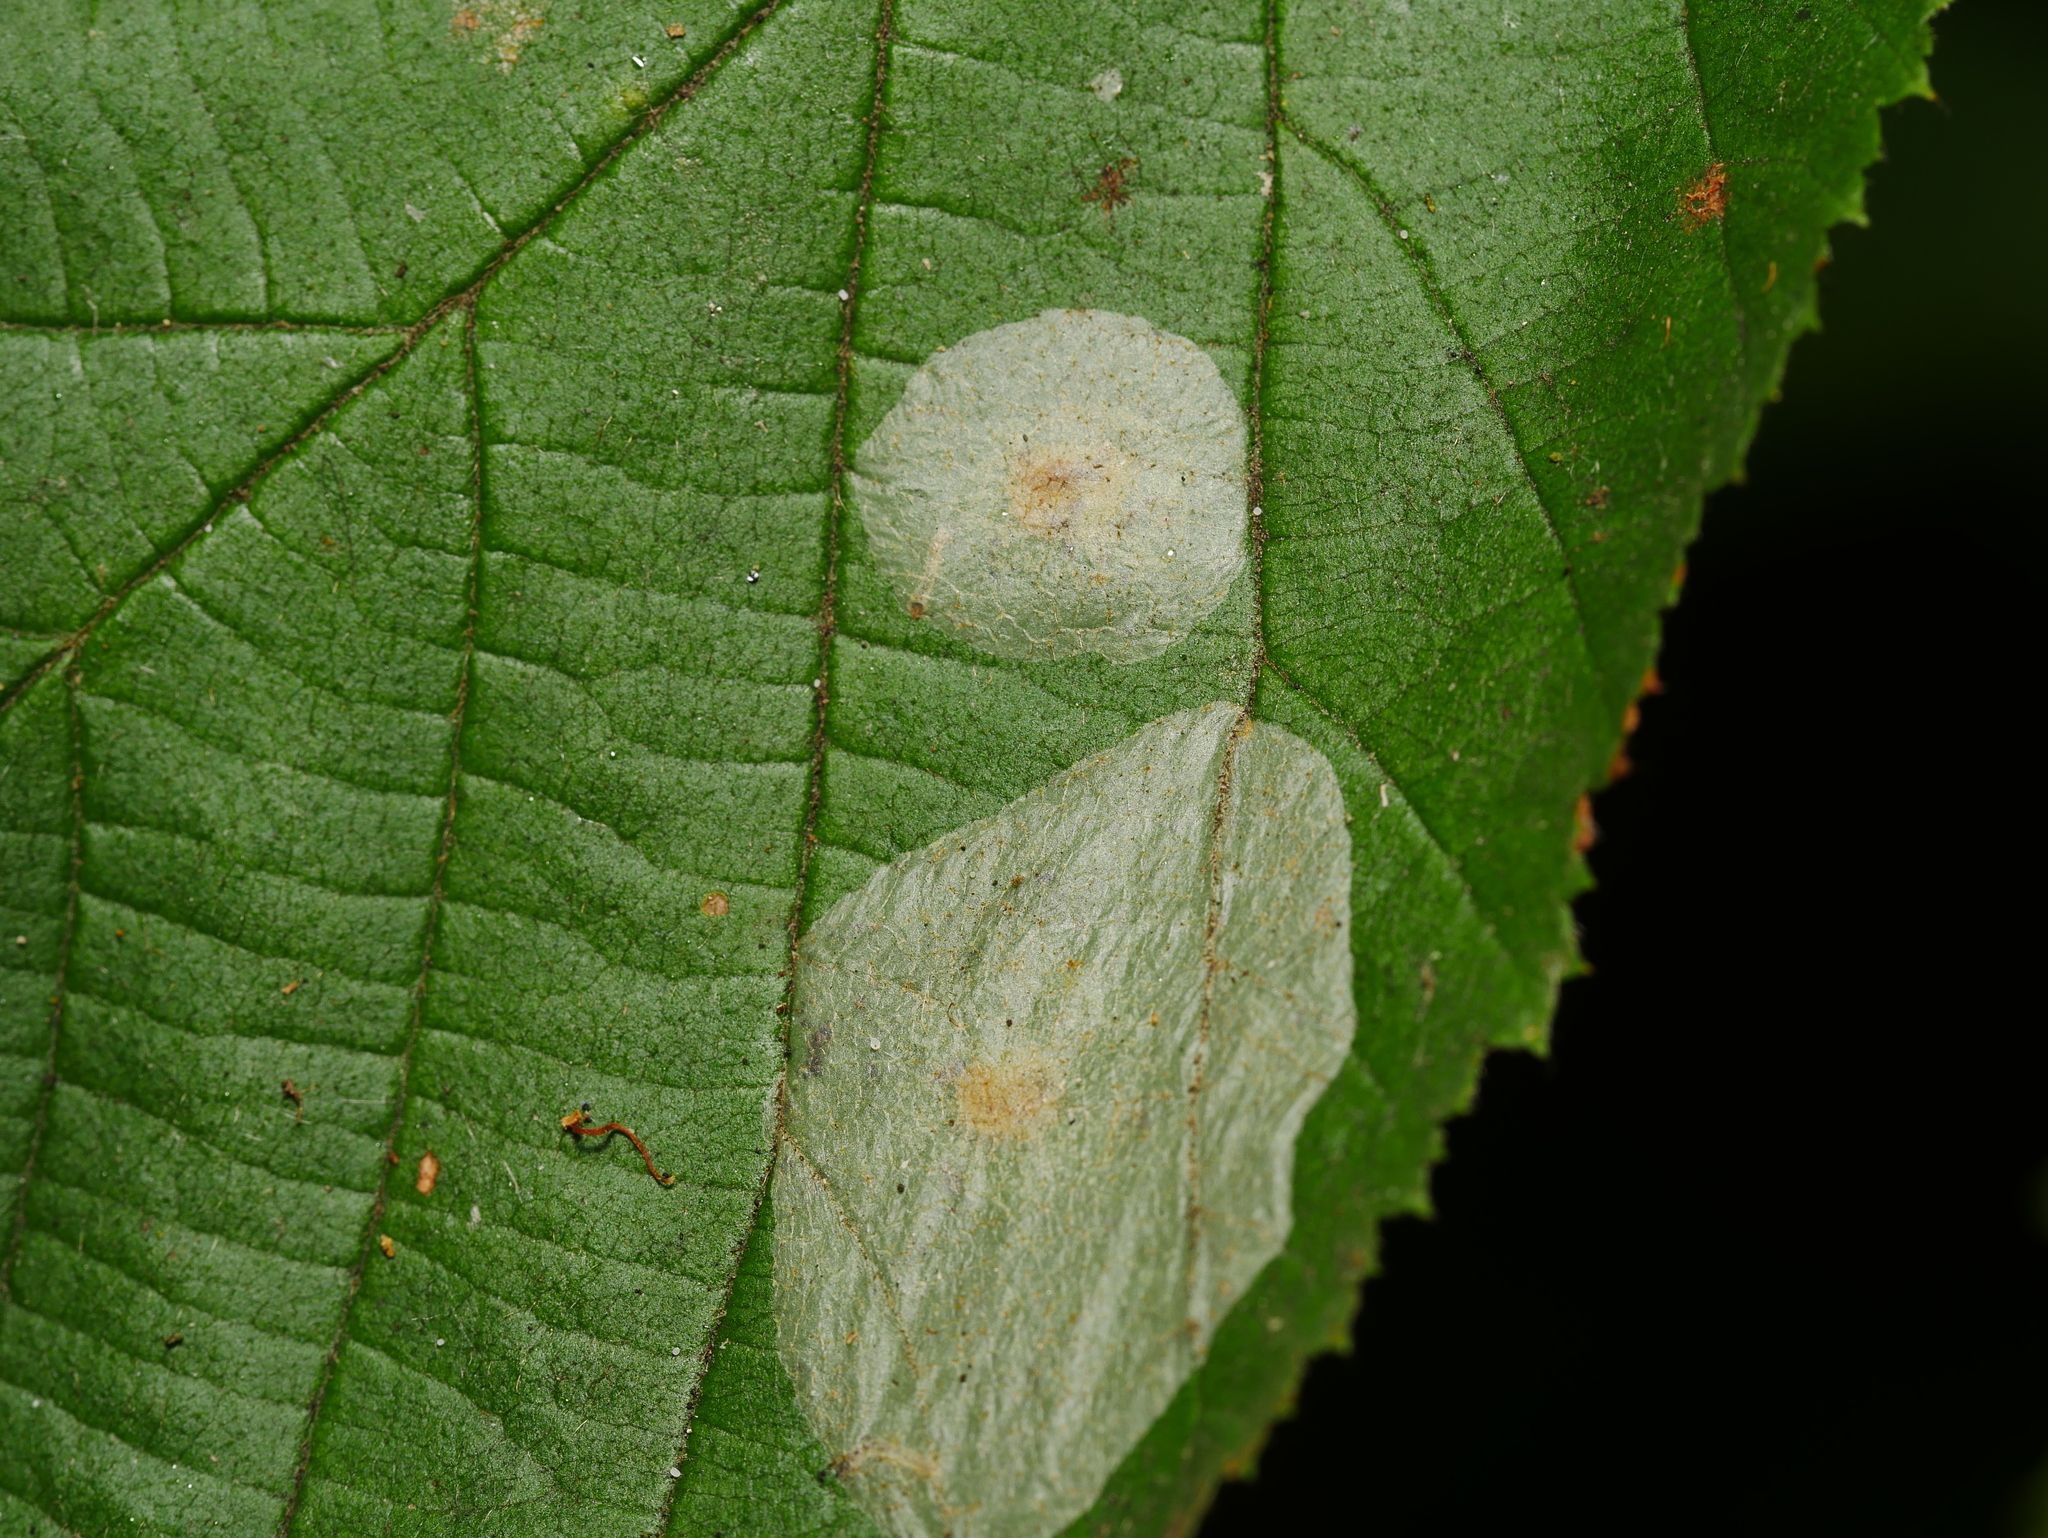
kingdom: Animalia
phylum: Arthropoda
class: Insecta
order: Lepidoptera
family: Gracillariidae
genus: Phyllonorycter
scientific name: Phyllonorycter coryli
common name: Nut-leaf blister moth
